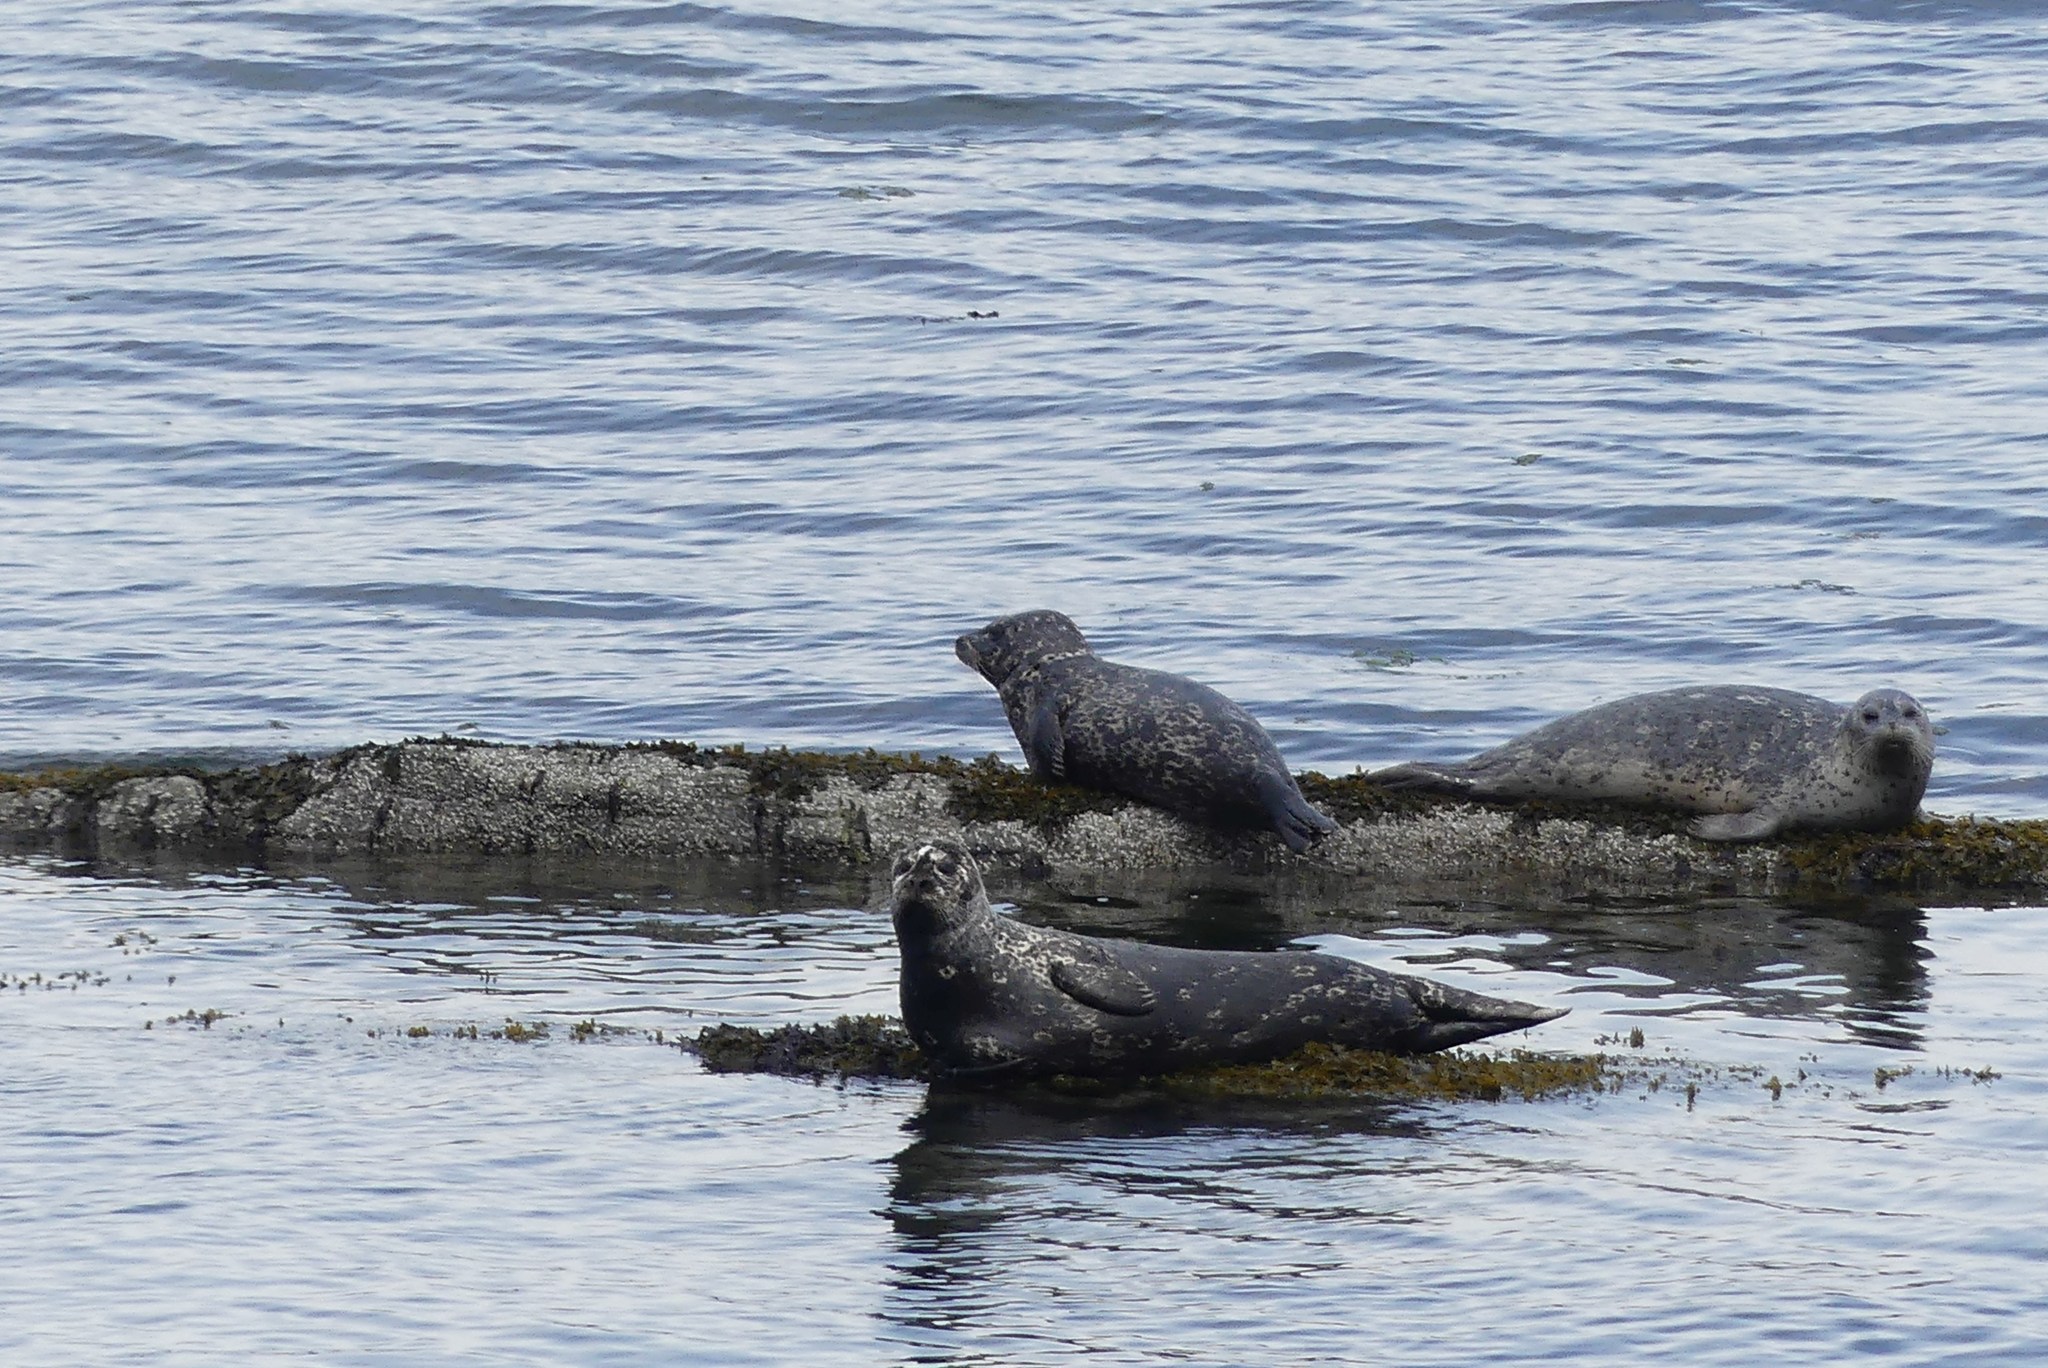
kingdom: Animalia
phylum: Chordata
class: Mammalia
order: Carnivora
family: Phocidae
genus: Phoca
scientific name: Phoca vitulina
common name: Harbor seal
